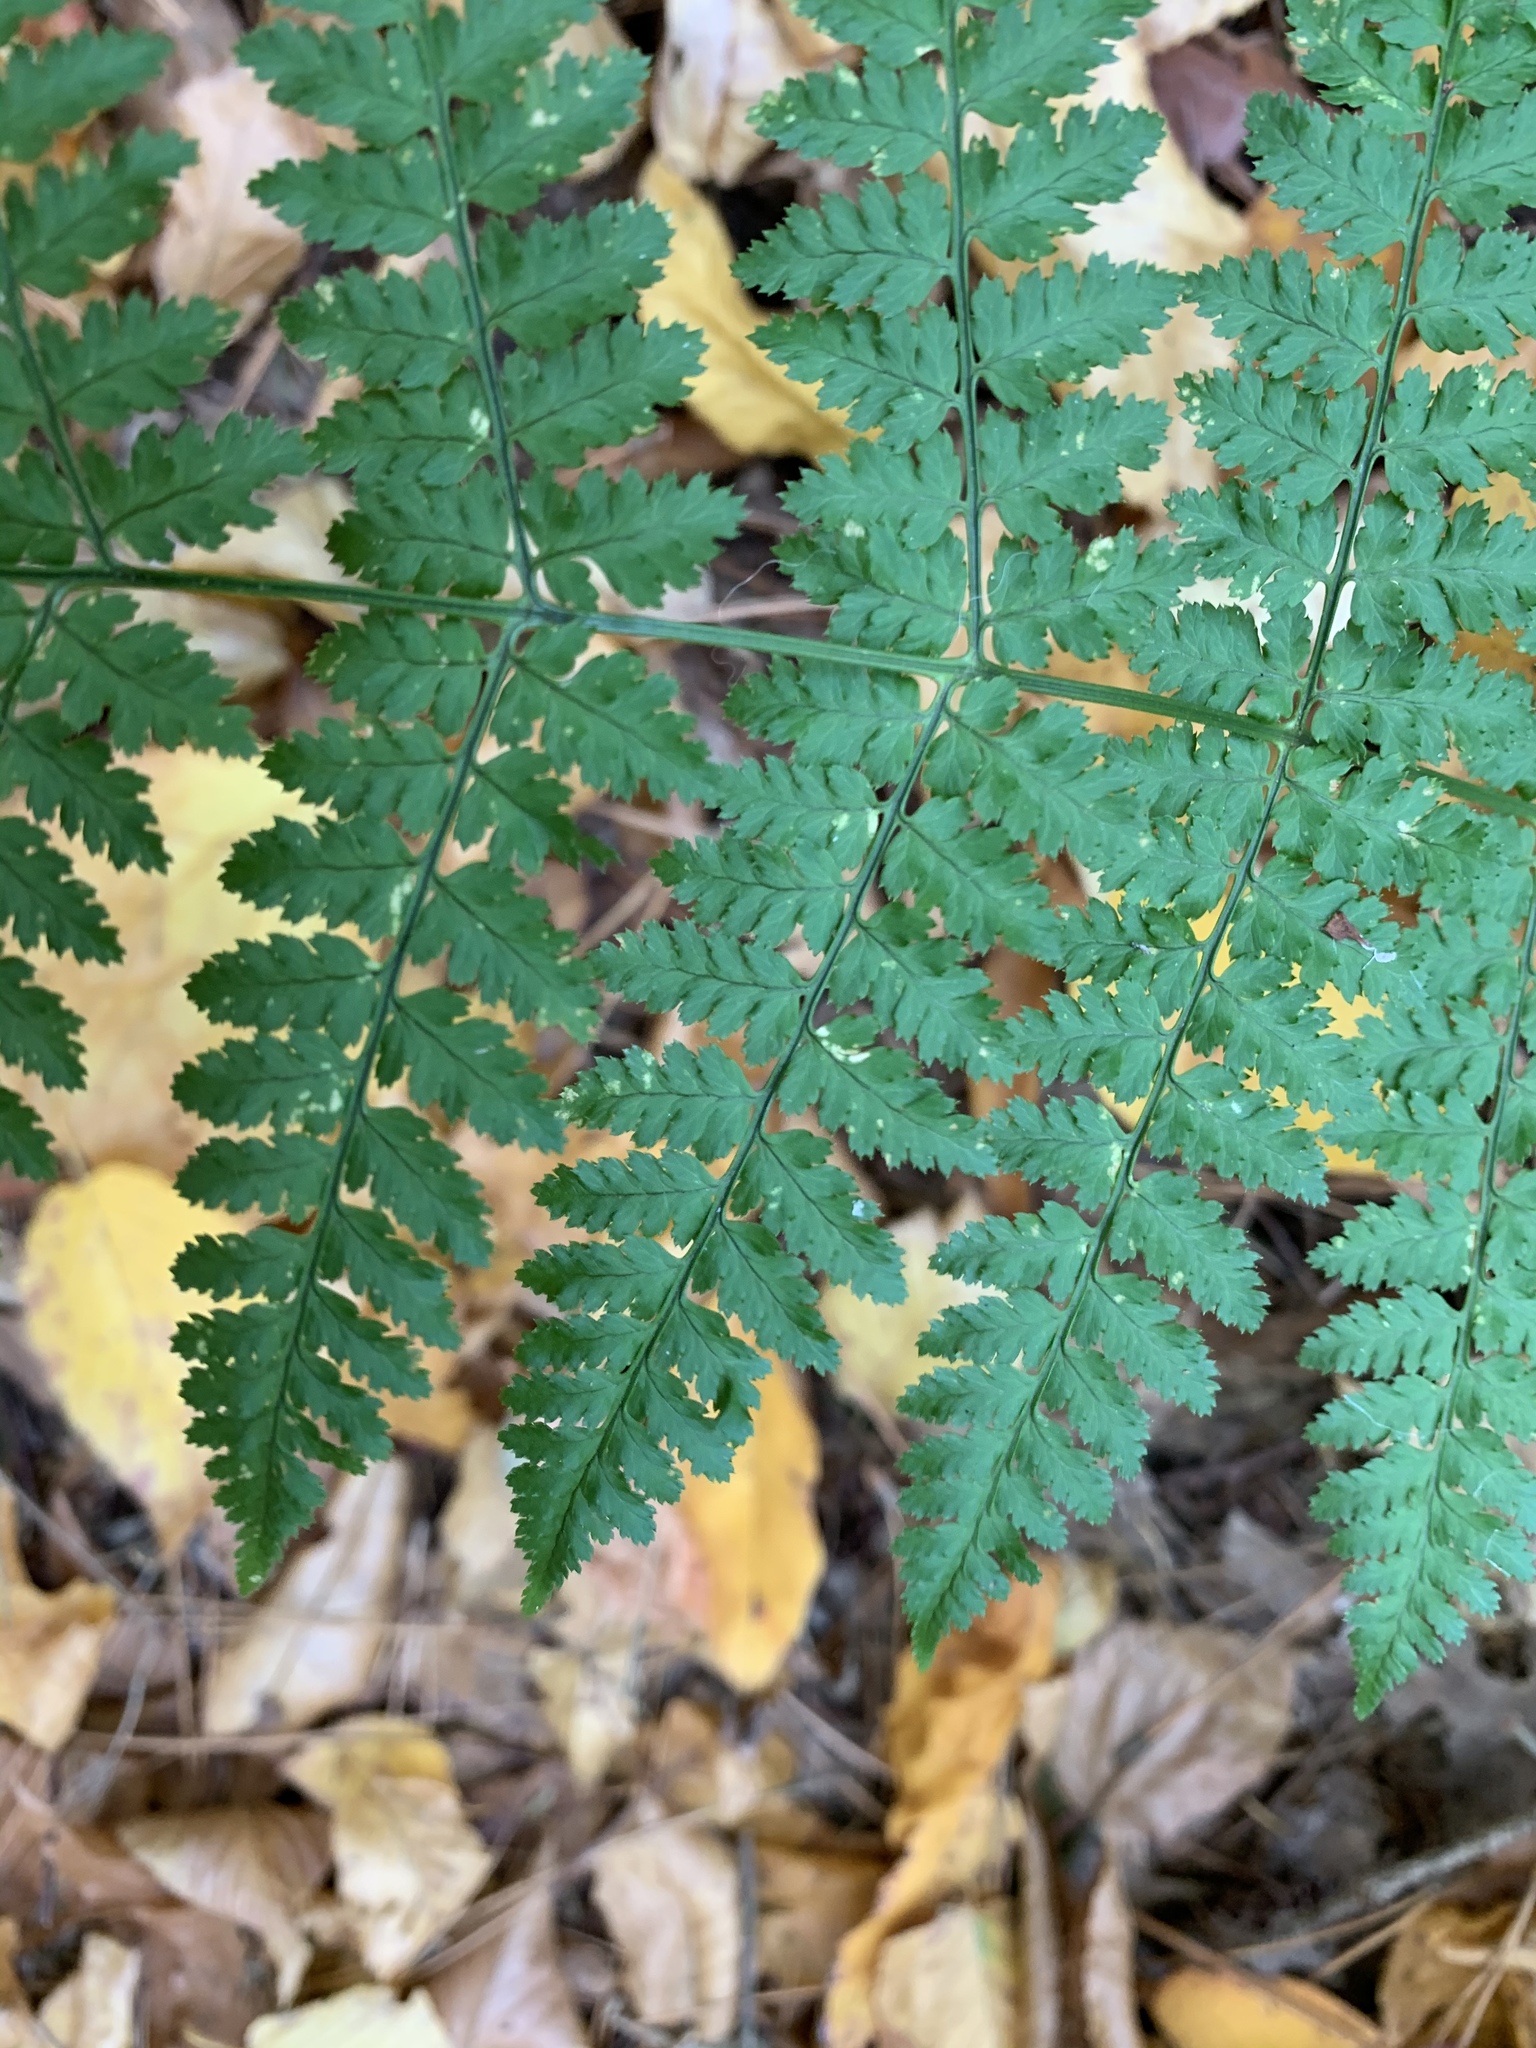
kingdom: Plantae
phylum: Tracheophyta
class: Polypodiopsida
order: Polypodiales
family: Dryopteridaceae
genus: Dryopteris
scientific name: Dryopteris intermedia
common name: Evergreen wood fern
